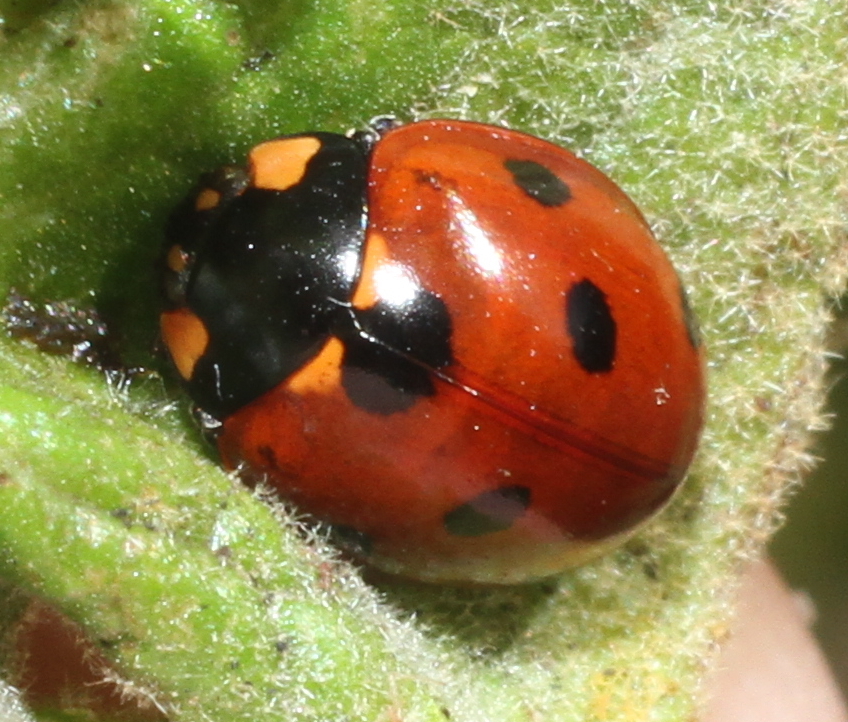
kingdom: Animalia
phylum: Arthropoda
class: Insecta
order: Coleoptera
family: Coccinellidae
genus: Coccinella
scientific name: Coccinella septempunctata
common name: Sevenspotted lady beetle
